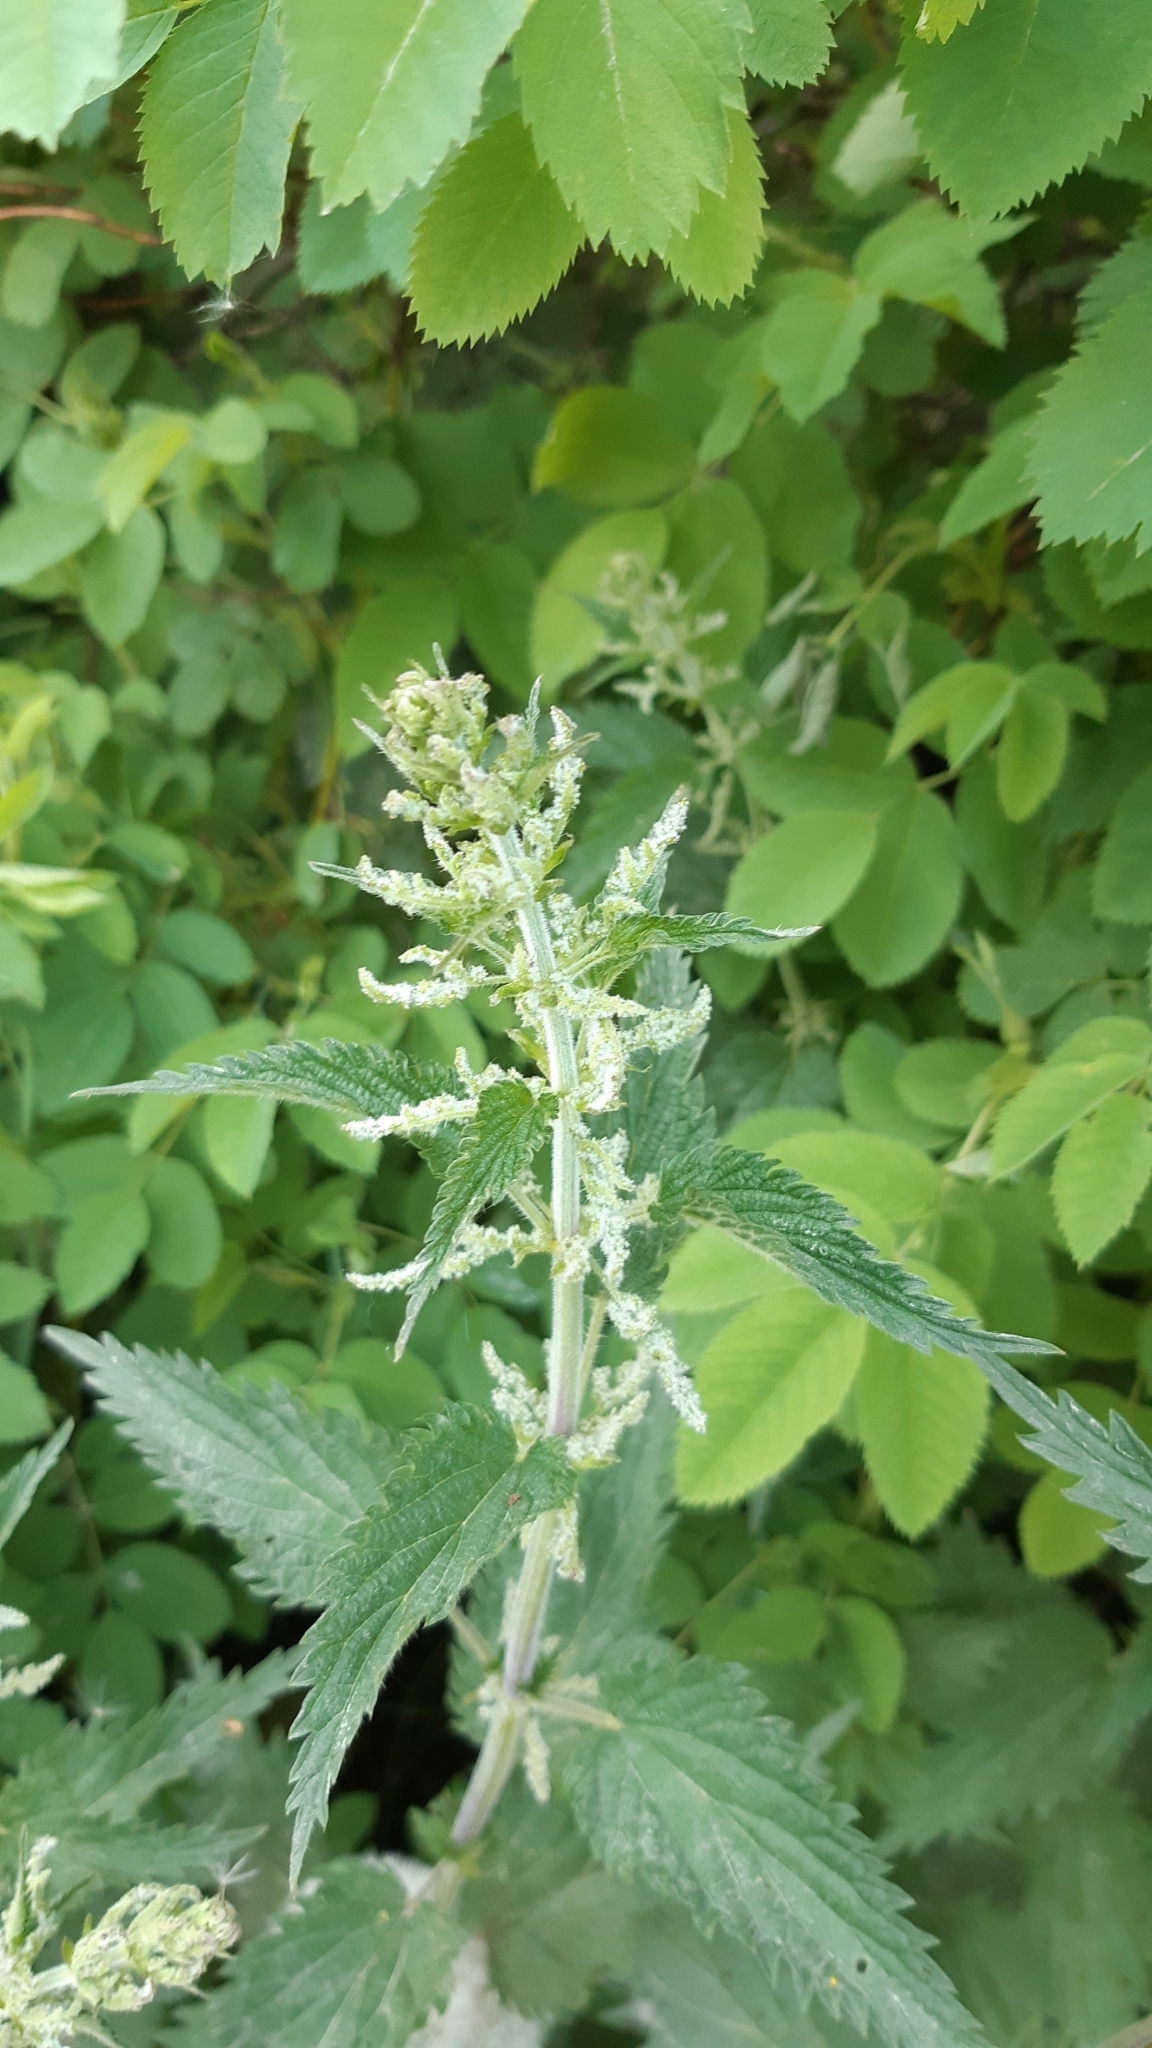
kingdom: Plantae
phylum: Tracheophyta
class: Magnoliopsida
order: Rosales
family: Urticaceae
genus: Urtica
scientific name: Urtica dioica
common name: Common nettle
